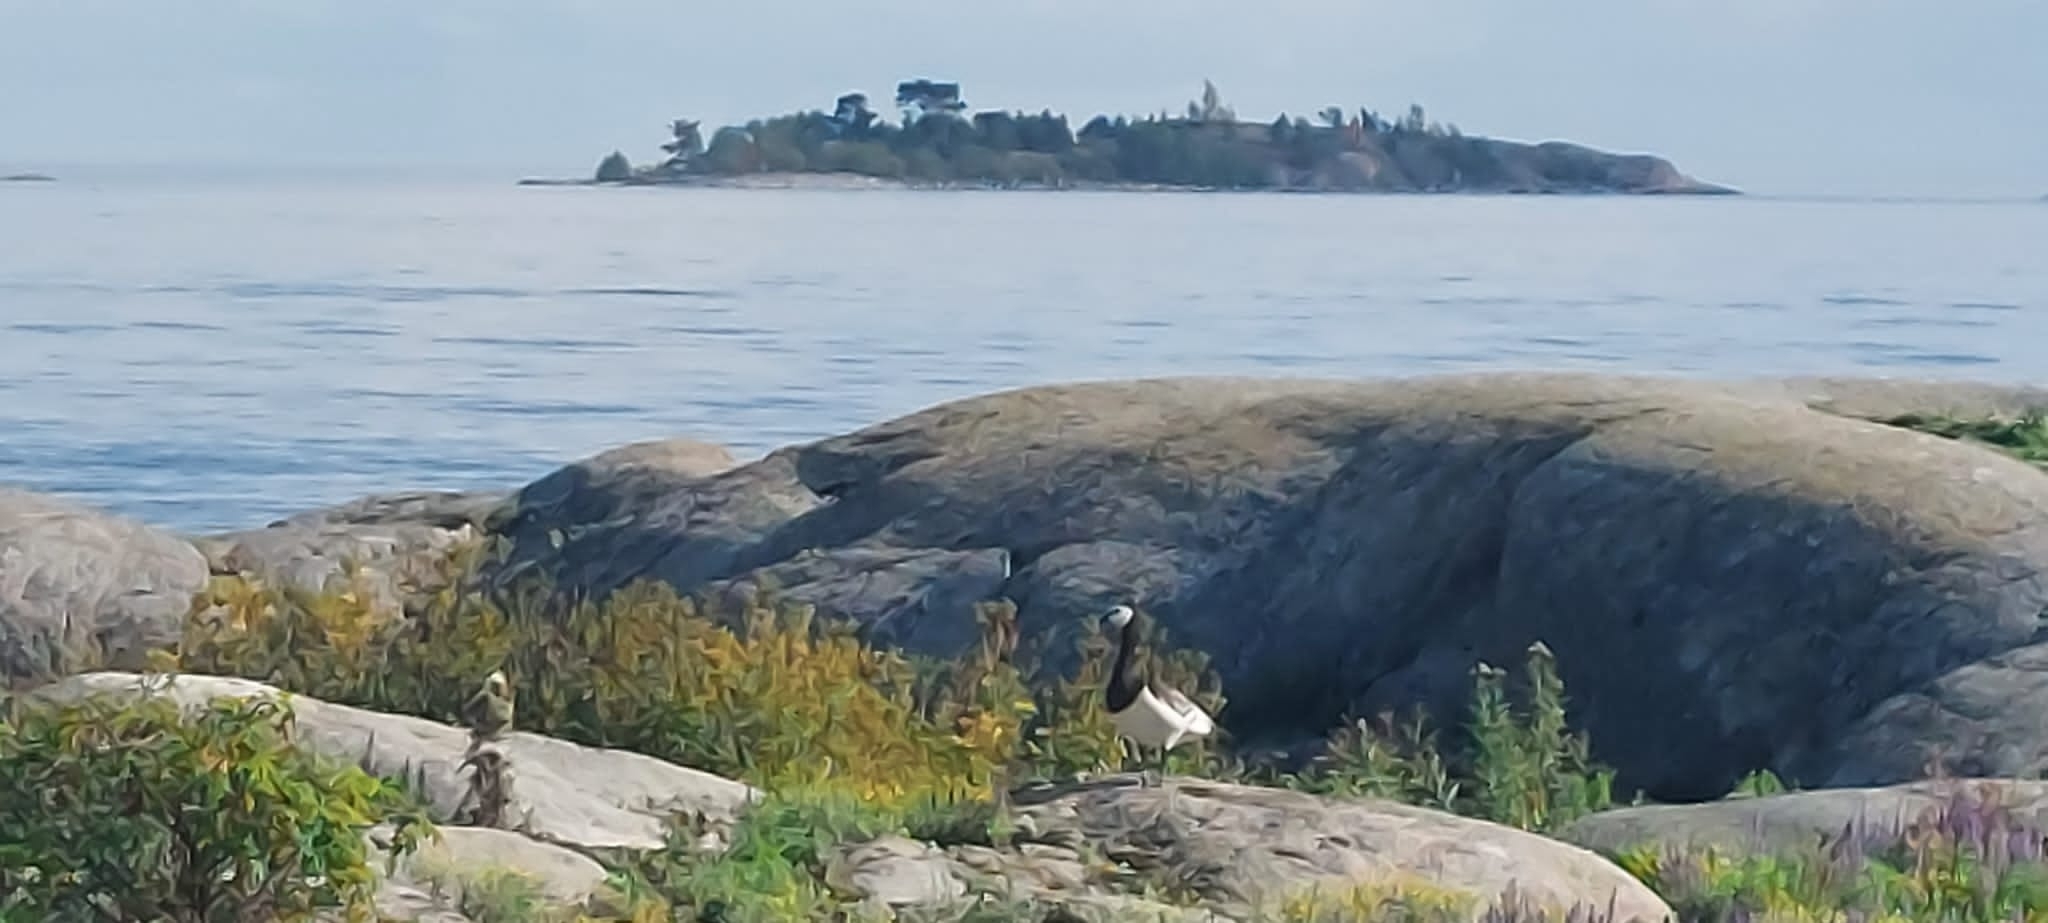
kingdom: Animalia
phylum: Chordata
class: Aves
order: Anseriformes
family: Anatidae
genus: Branta
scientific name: Branta leucopsis
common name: Barnacle goose
